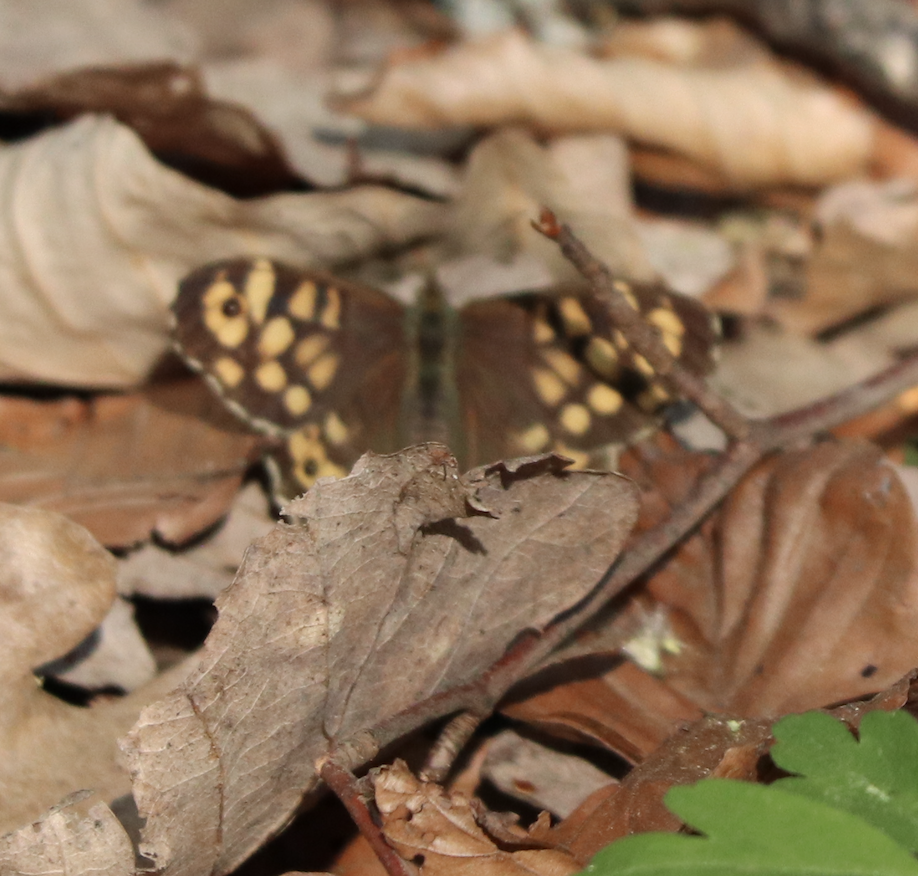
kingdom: Animalia
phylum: Arthropoda
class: Insecta
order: Lepidoptera
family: Nymphalidae
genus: Pararge
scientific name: Pararge aegeria
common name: Speckled wood
